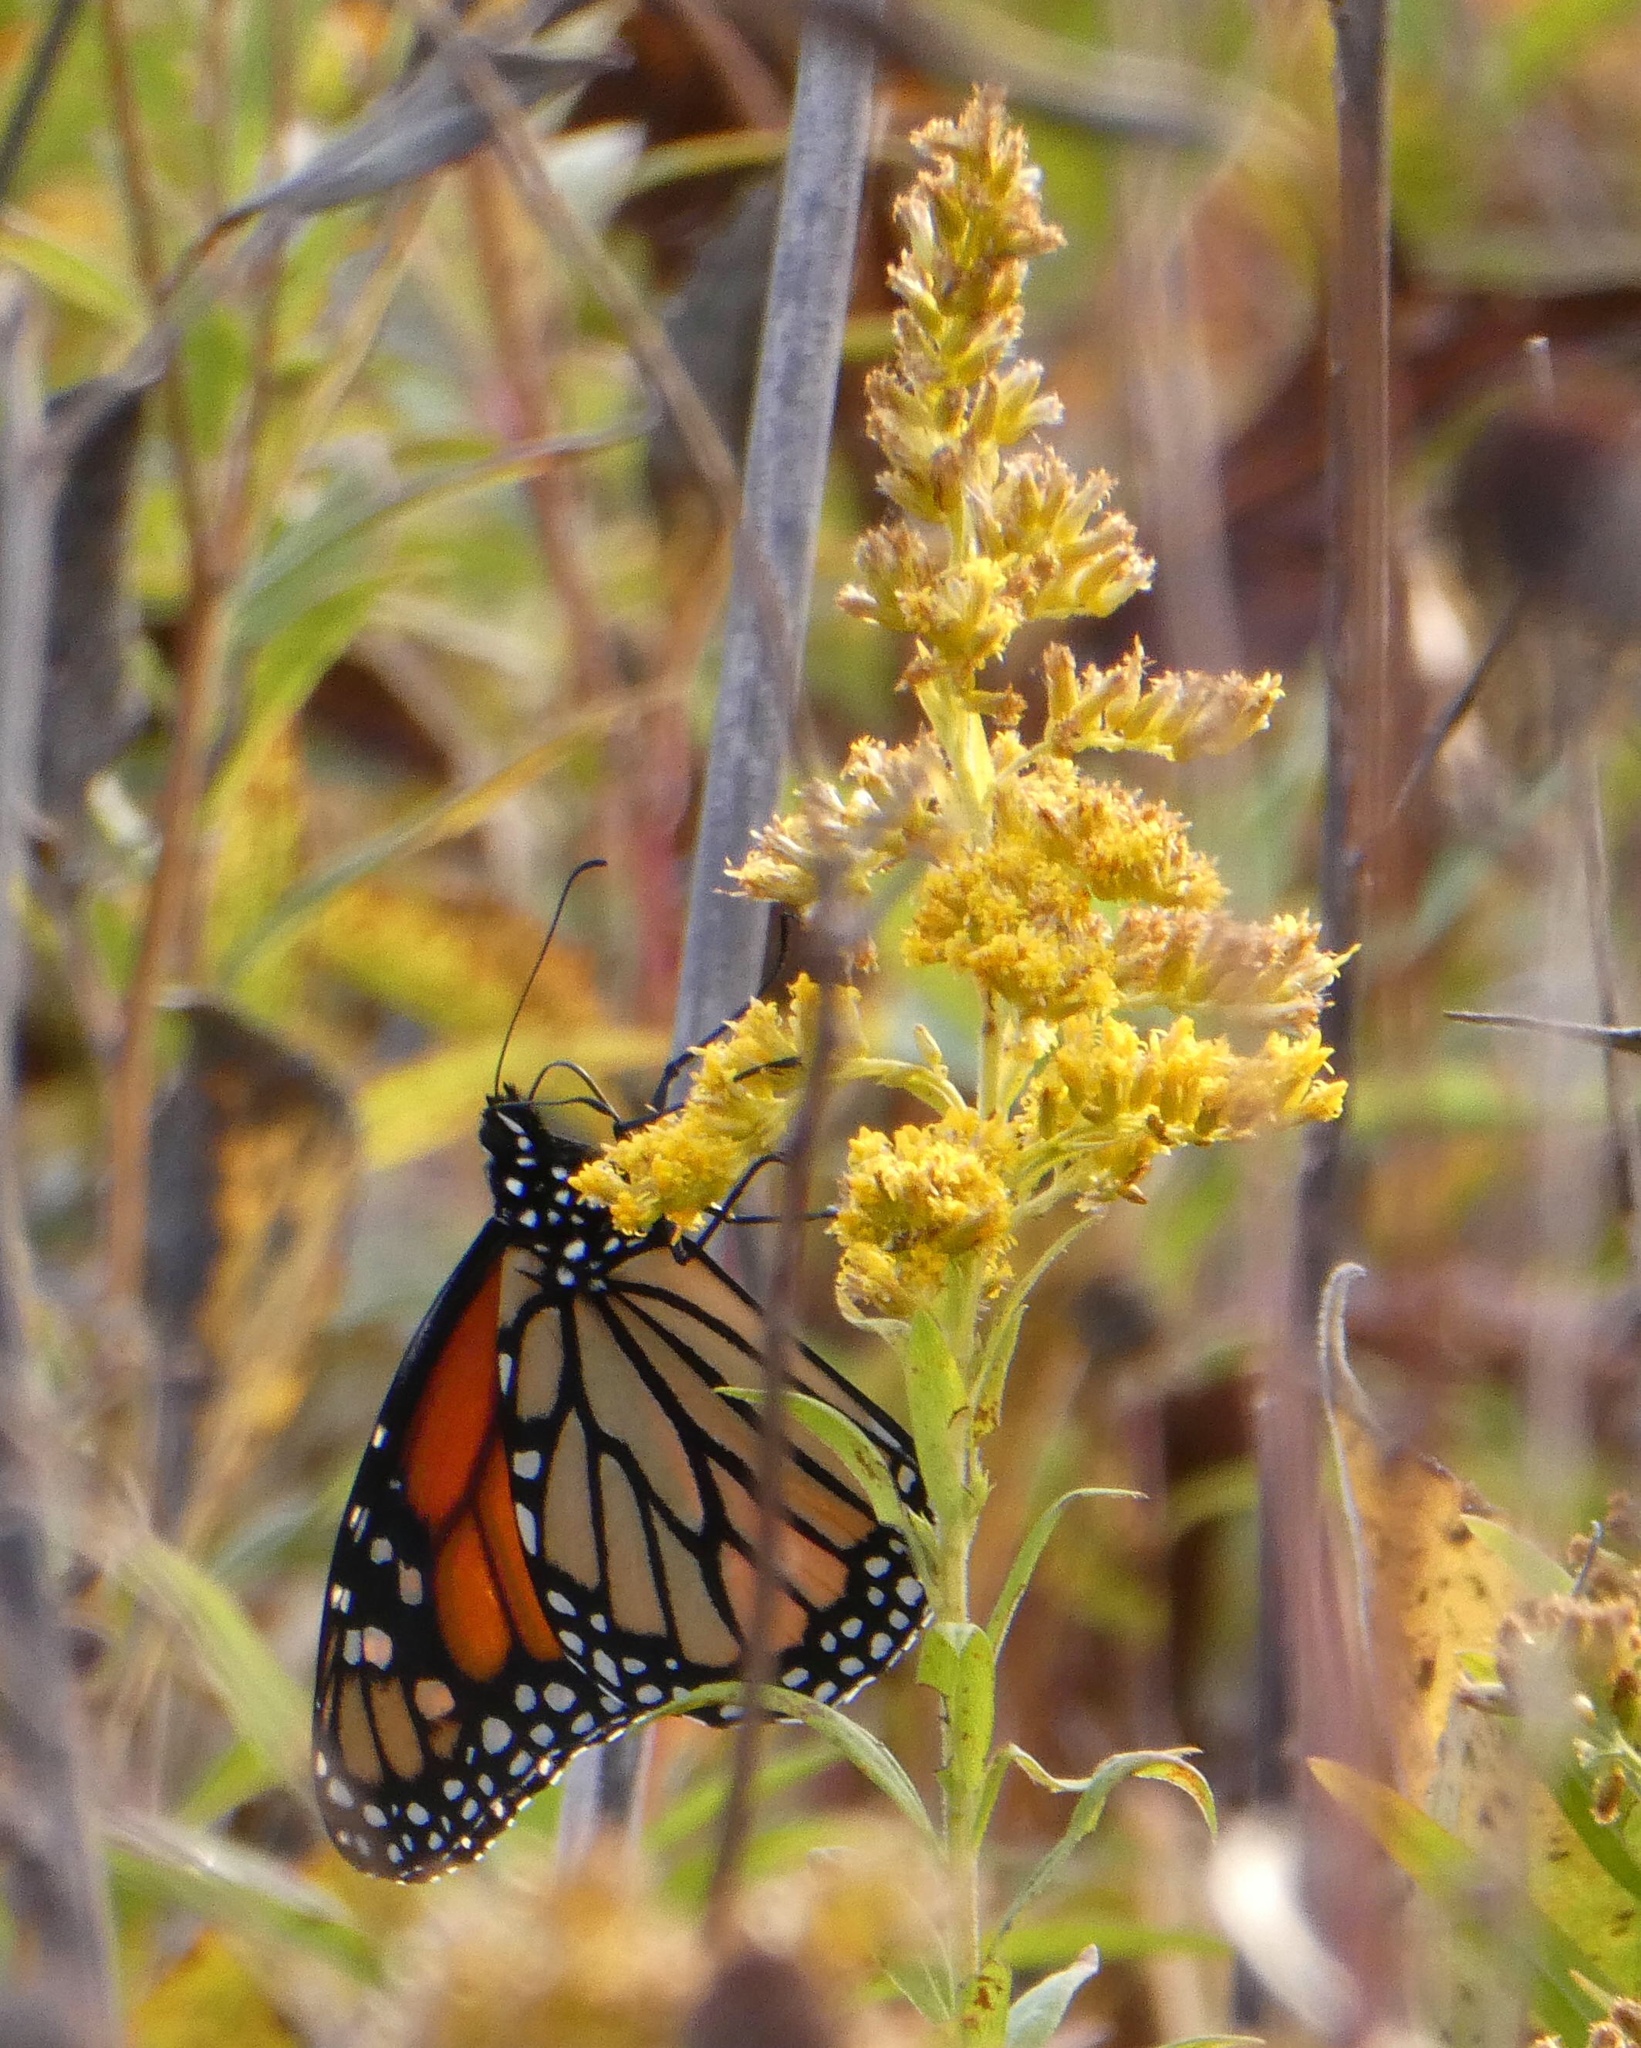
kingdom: Animalia
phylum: Arthropoda
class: Insecta
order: Lepidoptera
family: Nymphalidae
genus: Danaus
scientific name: Danaus plexippus
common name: Monarch
